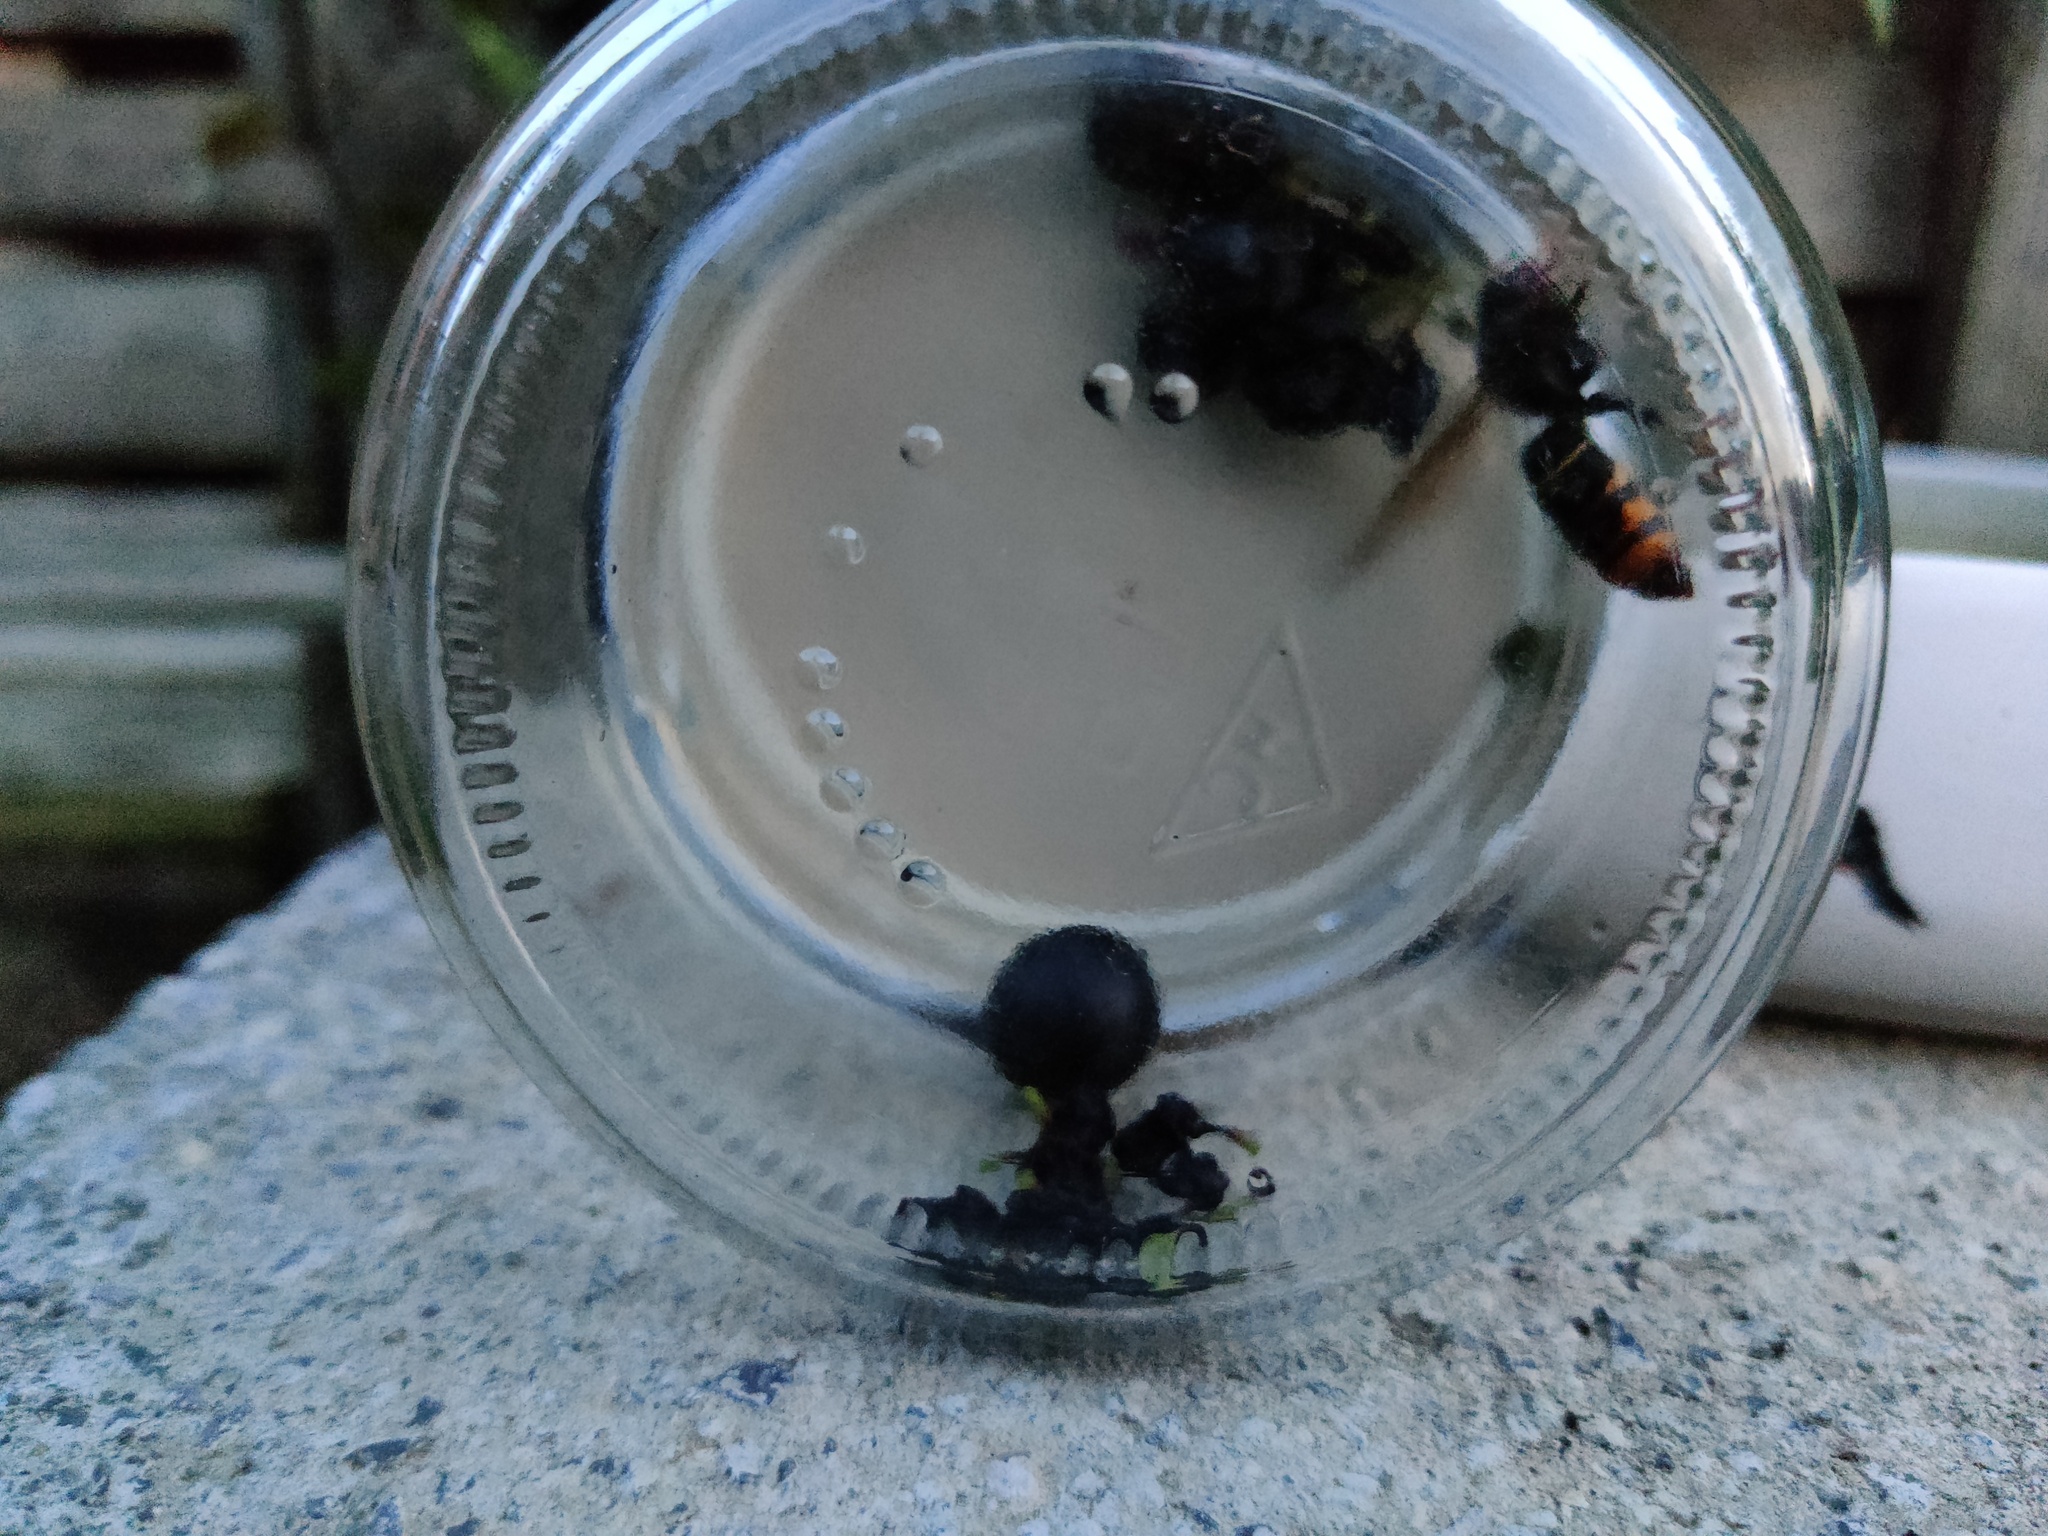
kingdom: Animalia
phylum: Arthropoda
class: Insecta
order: Hymenoptera
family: Vespidae
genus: Vespa
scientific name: Vespa velutina
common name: Asian hornet
